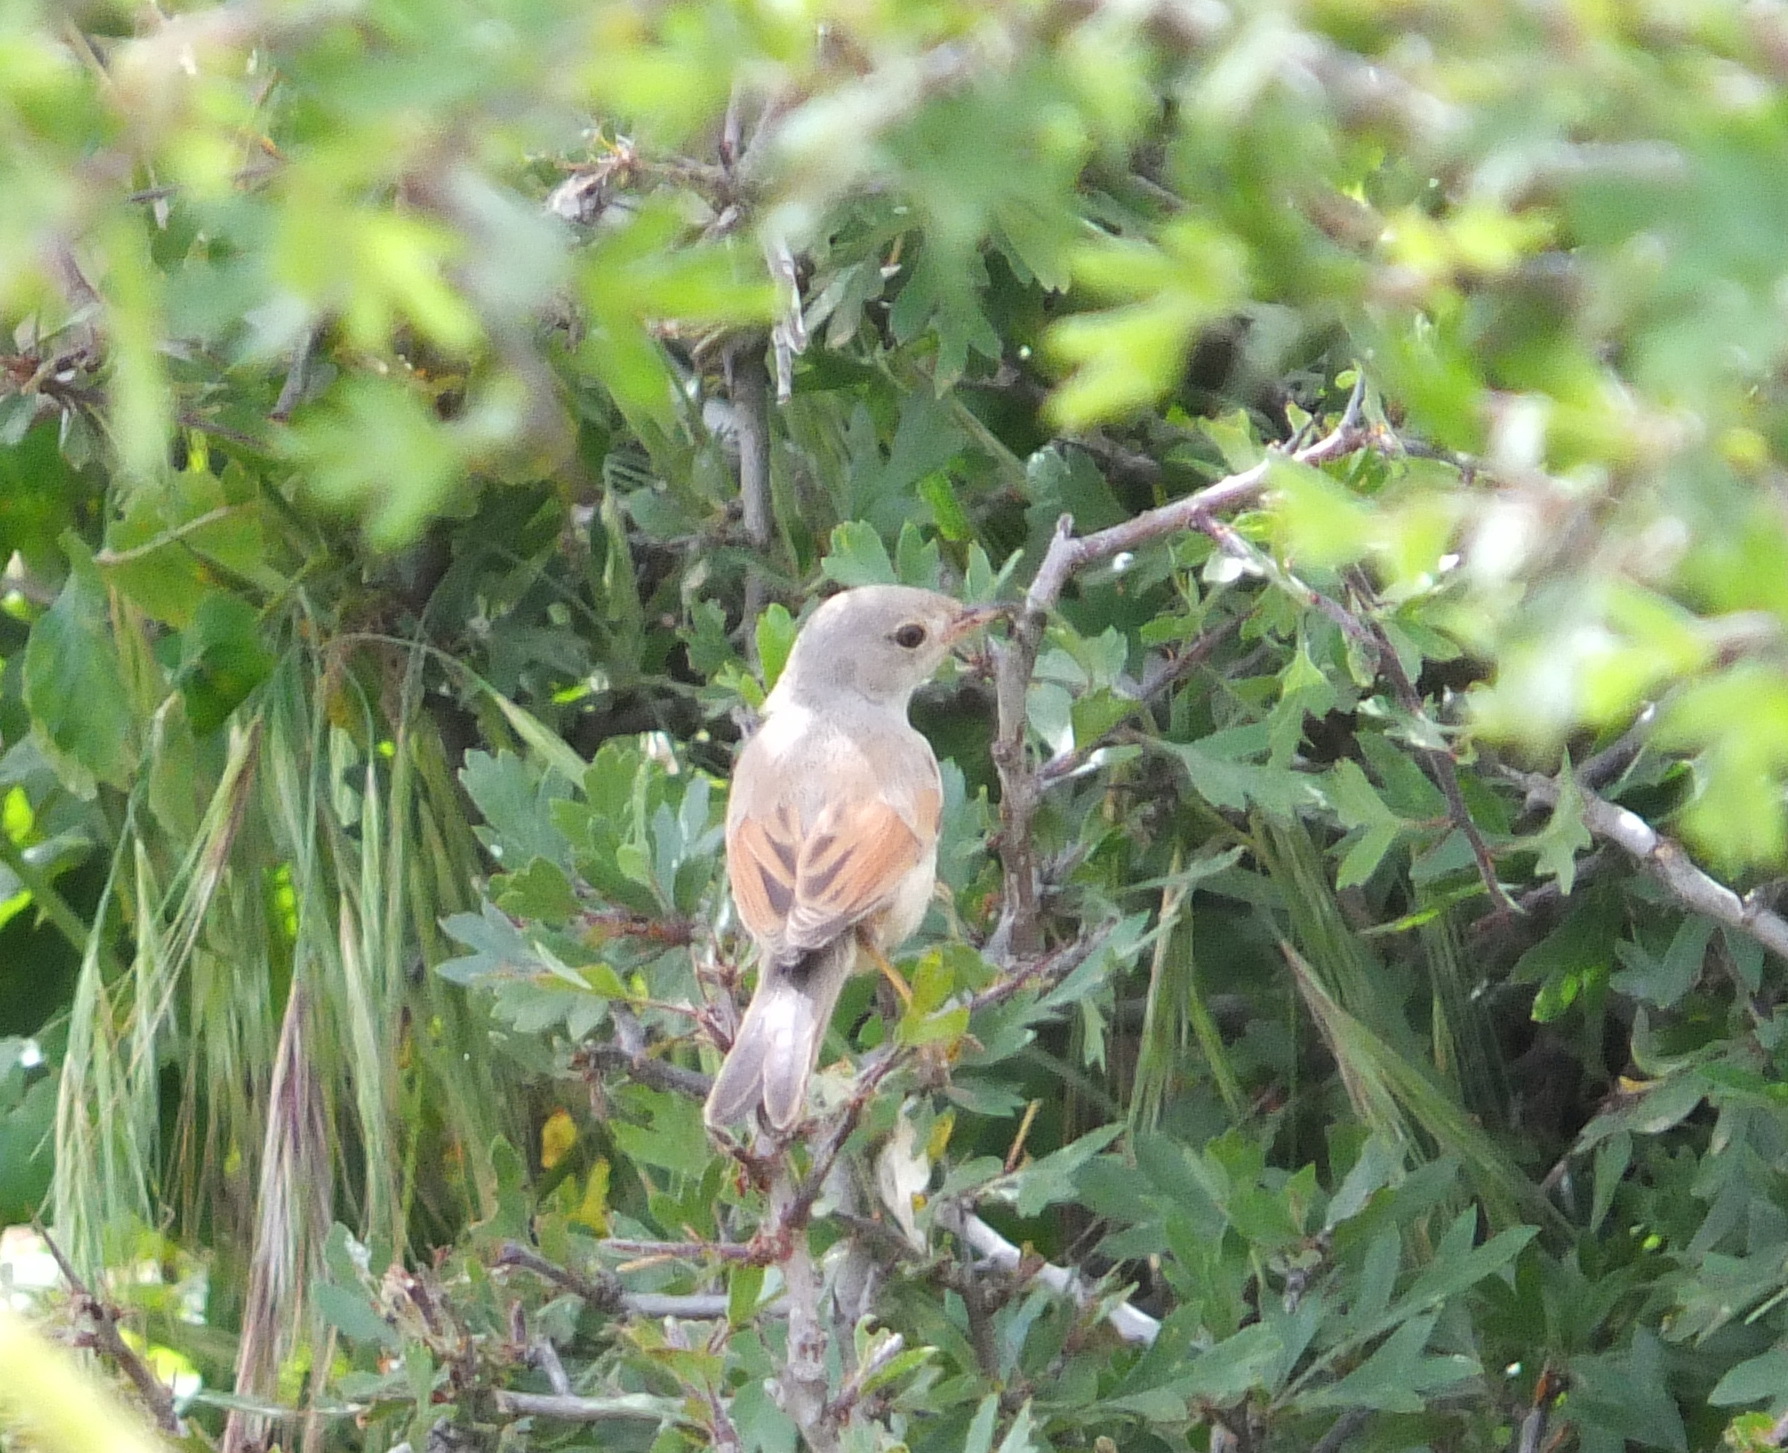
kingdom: Animalia
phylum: Chordata
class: Aves
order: Passeriformes
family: Sylviidae
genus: Sylvia
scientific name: Sylvia conspicillata
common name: Spectacled warbler
